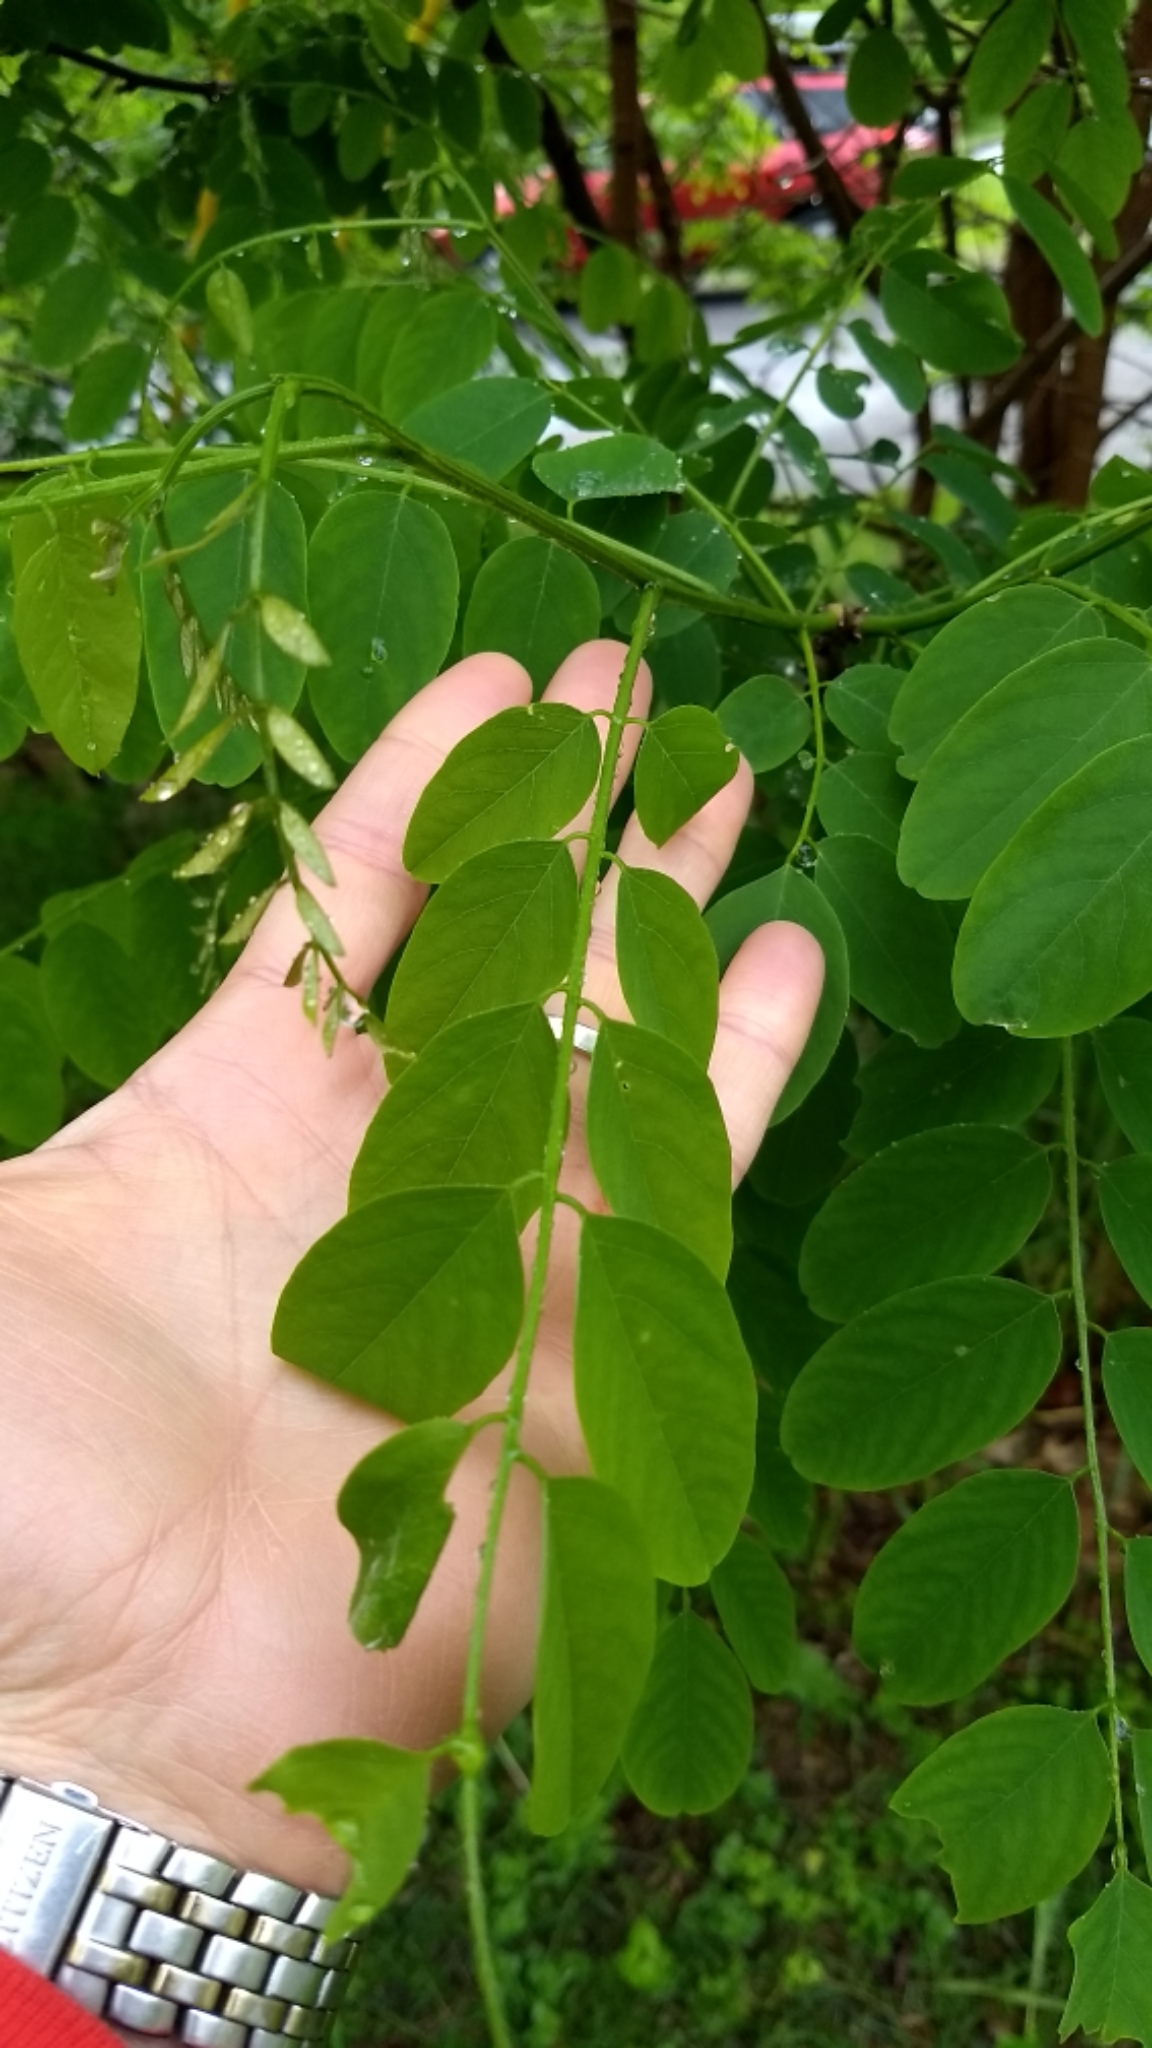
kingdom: Plantae
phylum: Tracheophyta
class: Magnoliopsida
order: Fabales
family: Fabaceae
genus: Robinia
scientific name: Robinia pseudoacacia
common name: Black locust
